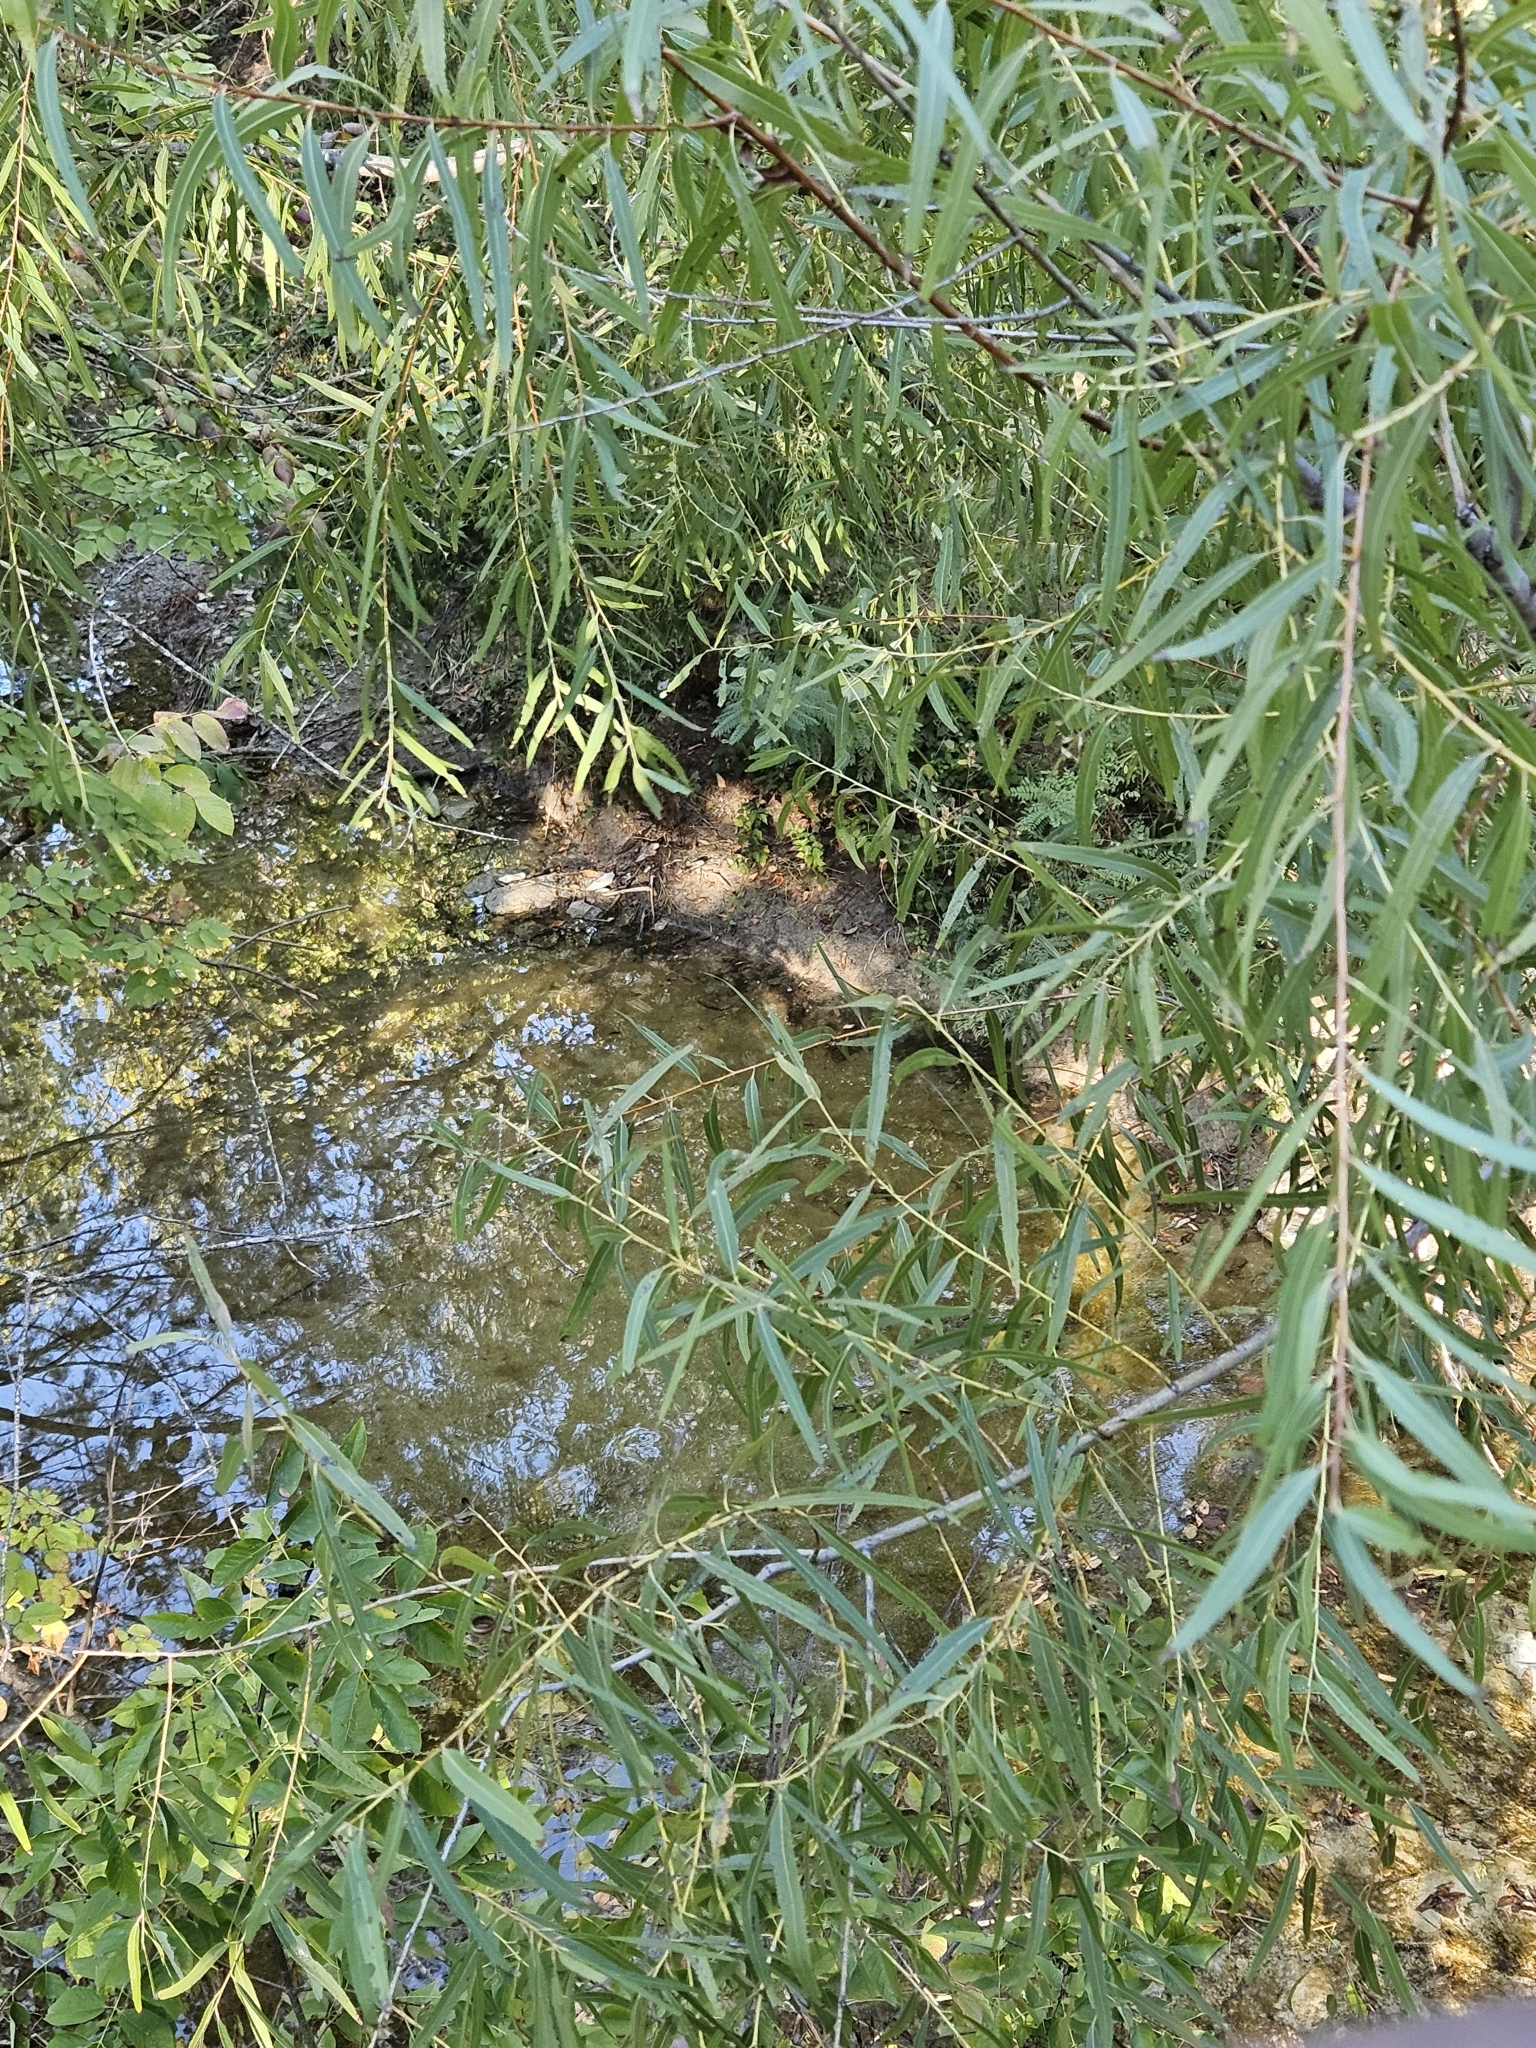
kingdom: Plantae
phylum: Tracheophyta
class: Magnoliopsida
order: Malpighiales
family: Salicaceae
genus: Salix
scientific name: Salix nigra
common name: Black willow
